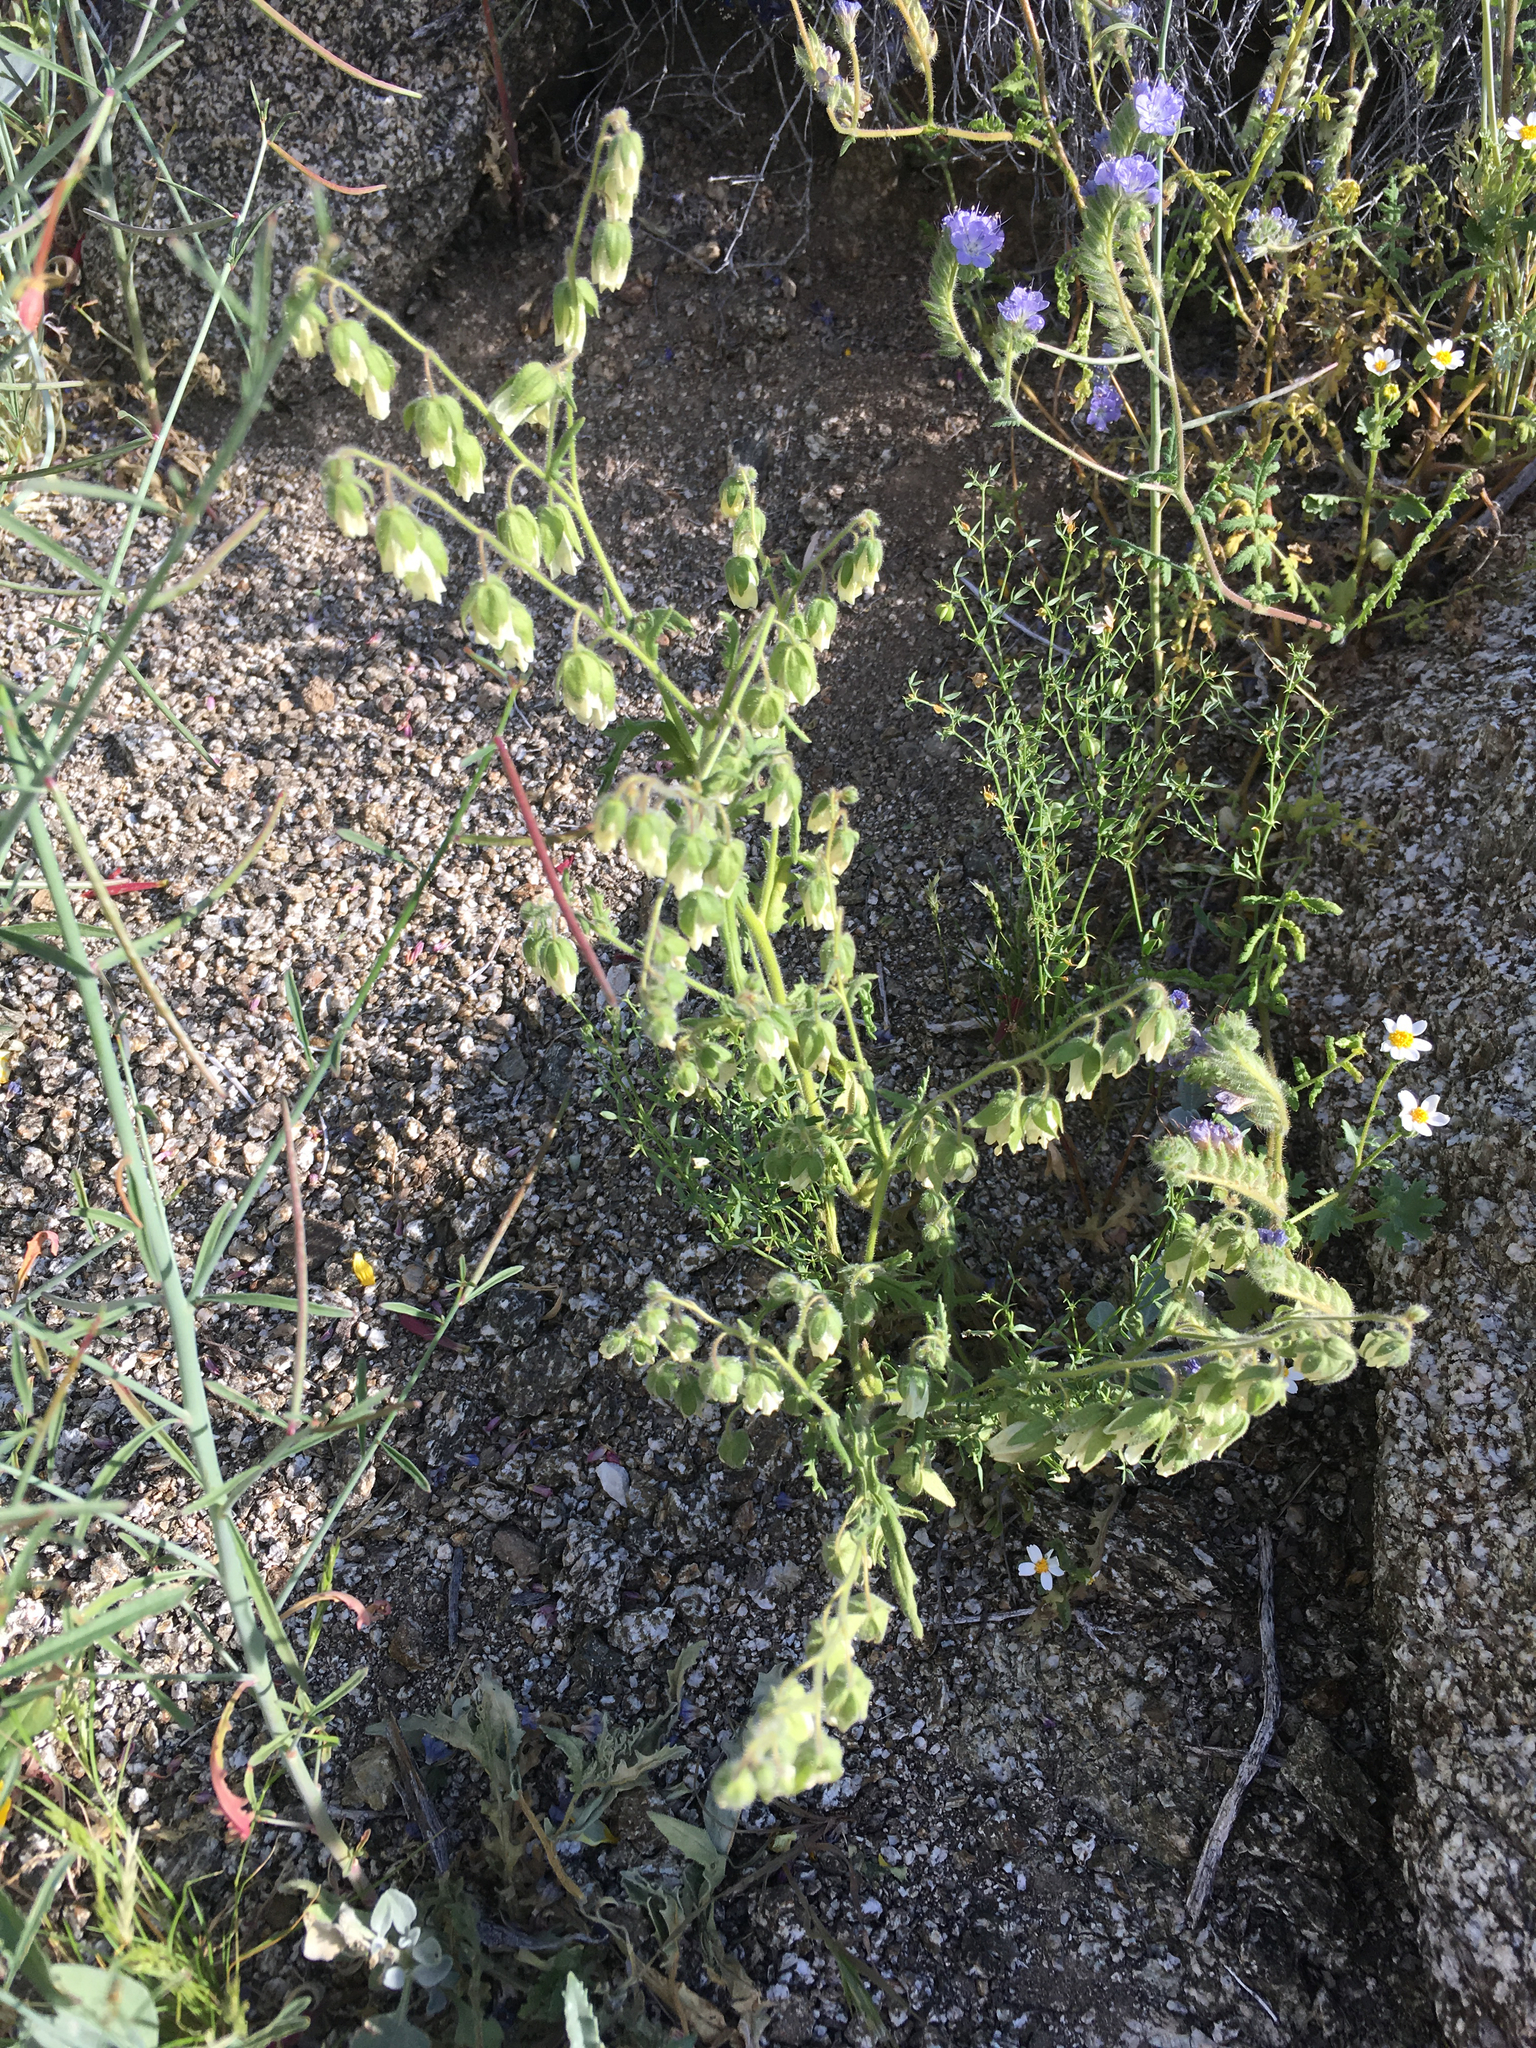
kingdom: Plantae
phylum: Tracheophyta
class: Magnoliopsida
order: Boraginales
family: Hydrophyllaceae
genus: Emmenanthe
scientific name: Emmenanthe penduliflora
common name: Whispering-bells
